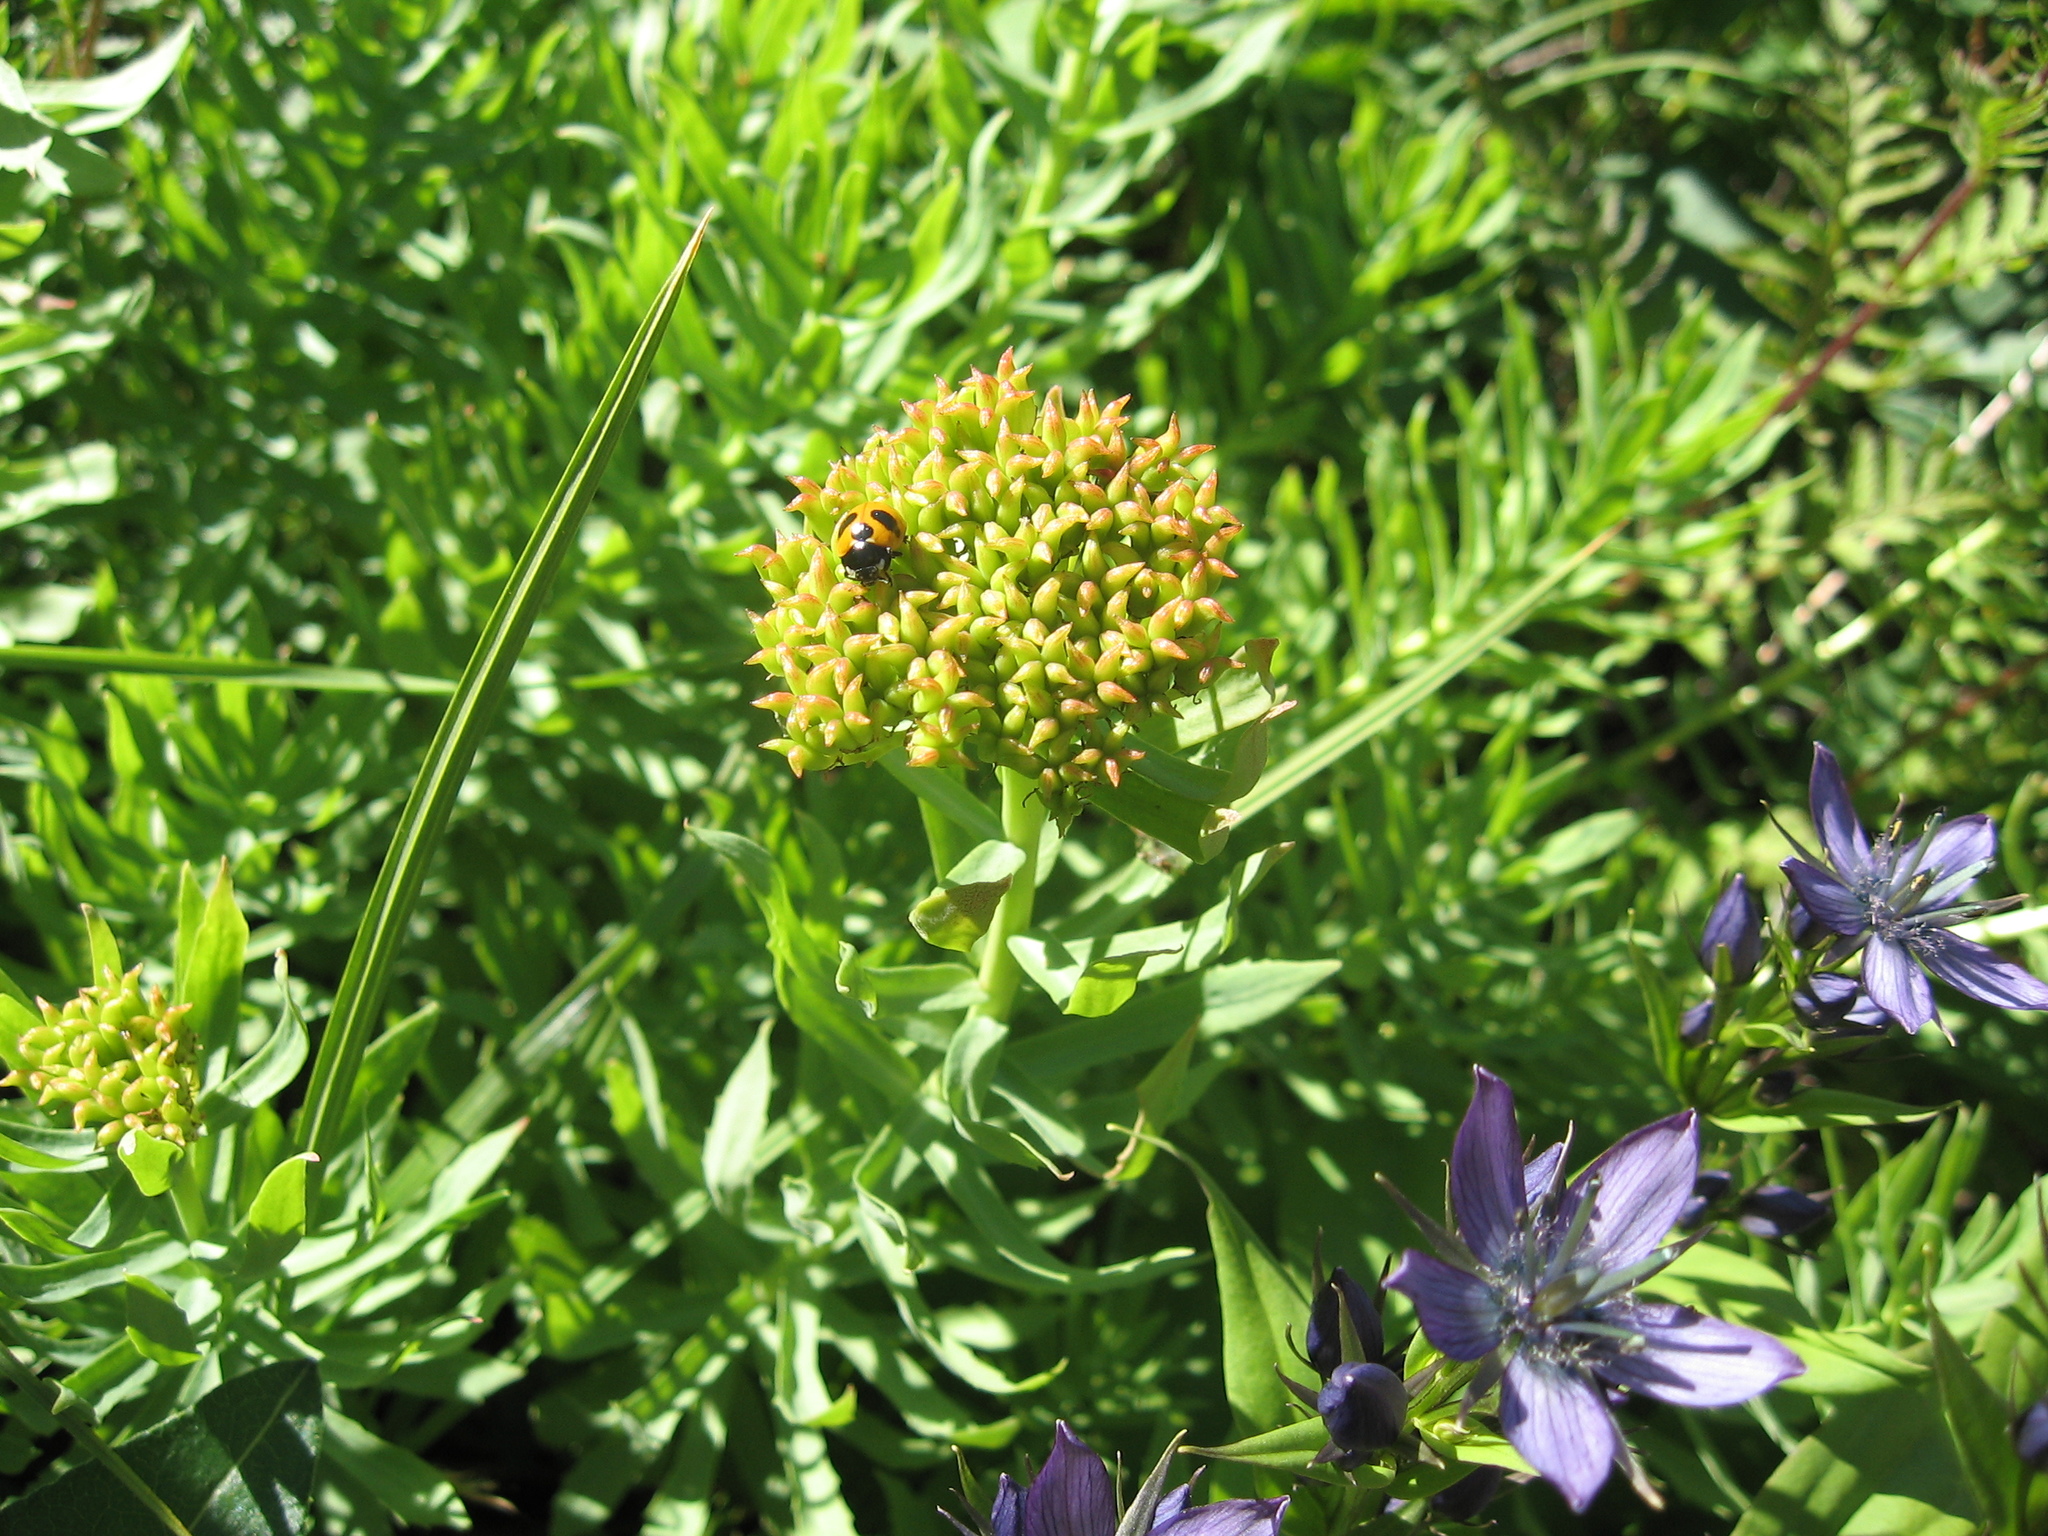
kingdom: Plantae
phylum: Tracheophyta
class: Magnoliopsida
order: Saxifragales
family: Crassulaceae
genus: Rhodiola
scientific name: Rhodiola rosea
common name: Roseroot
